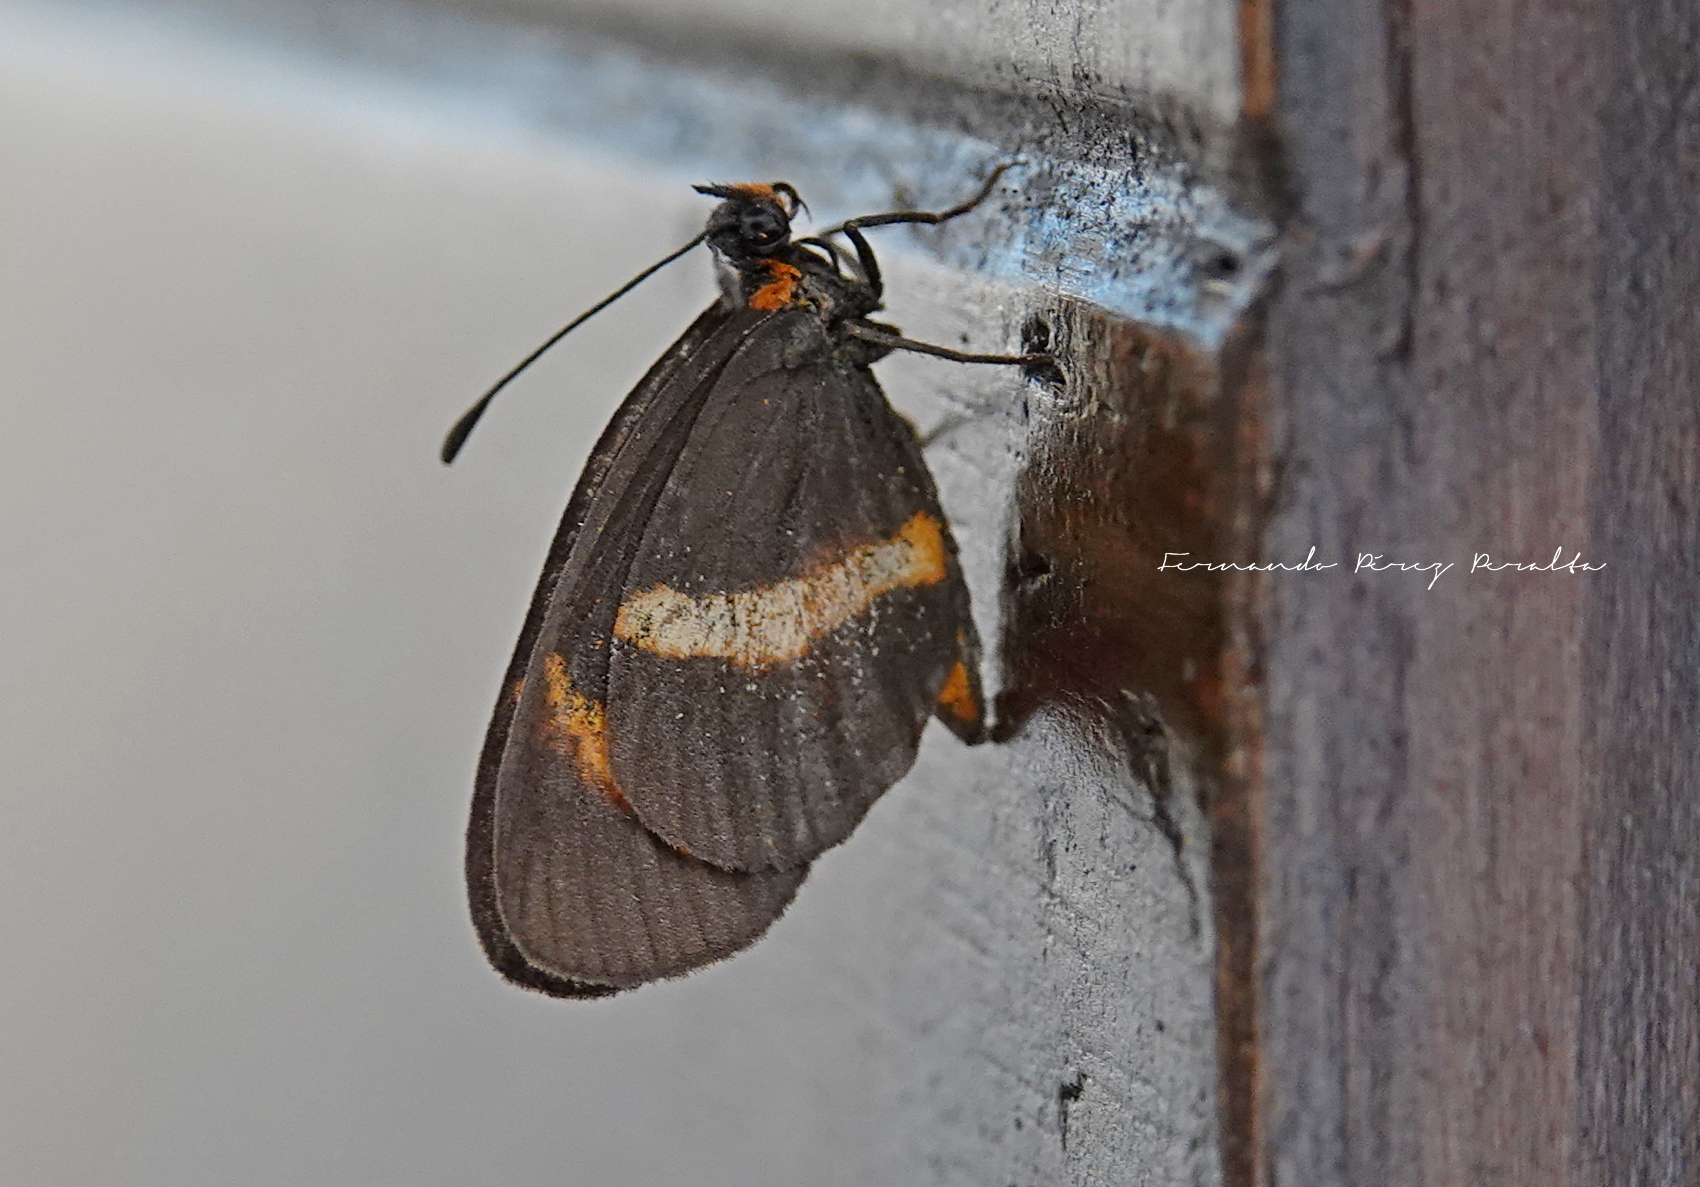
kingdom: Animalia
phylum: Arthropoda
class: Insecta
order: Lepidoptera
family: Nymphalidae
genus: Microtia
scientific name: Microtia elva
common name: Elf
